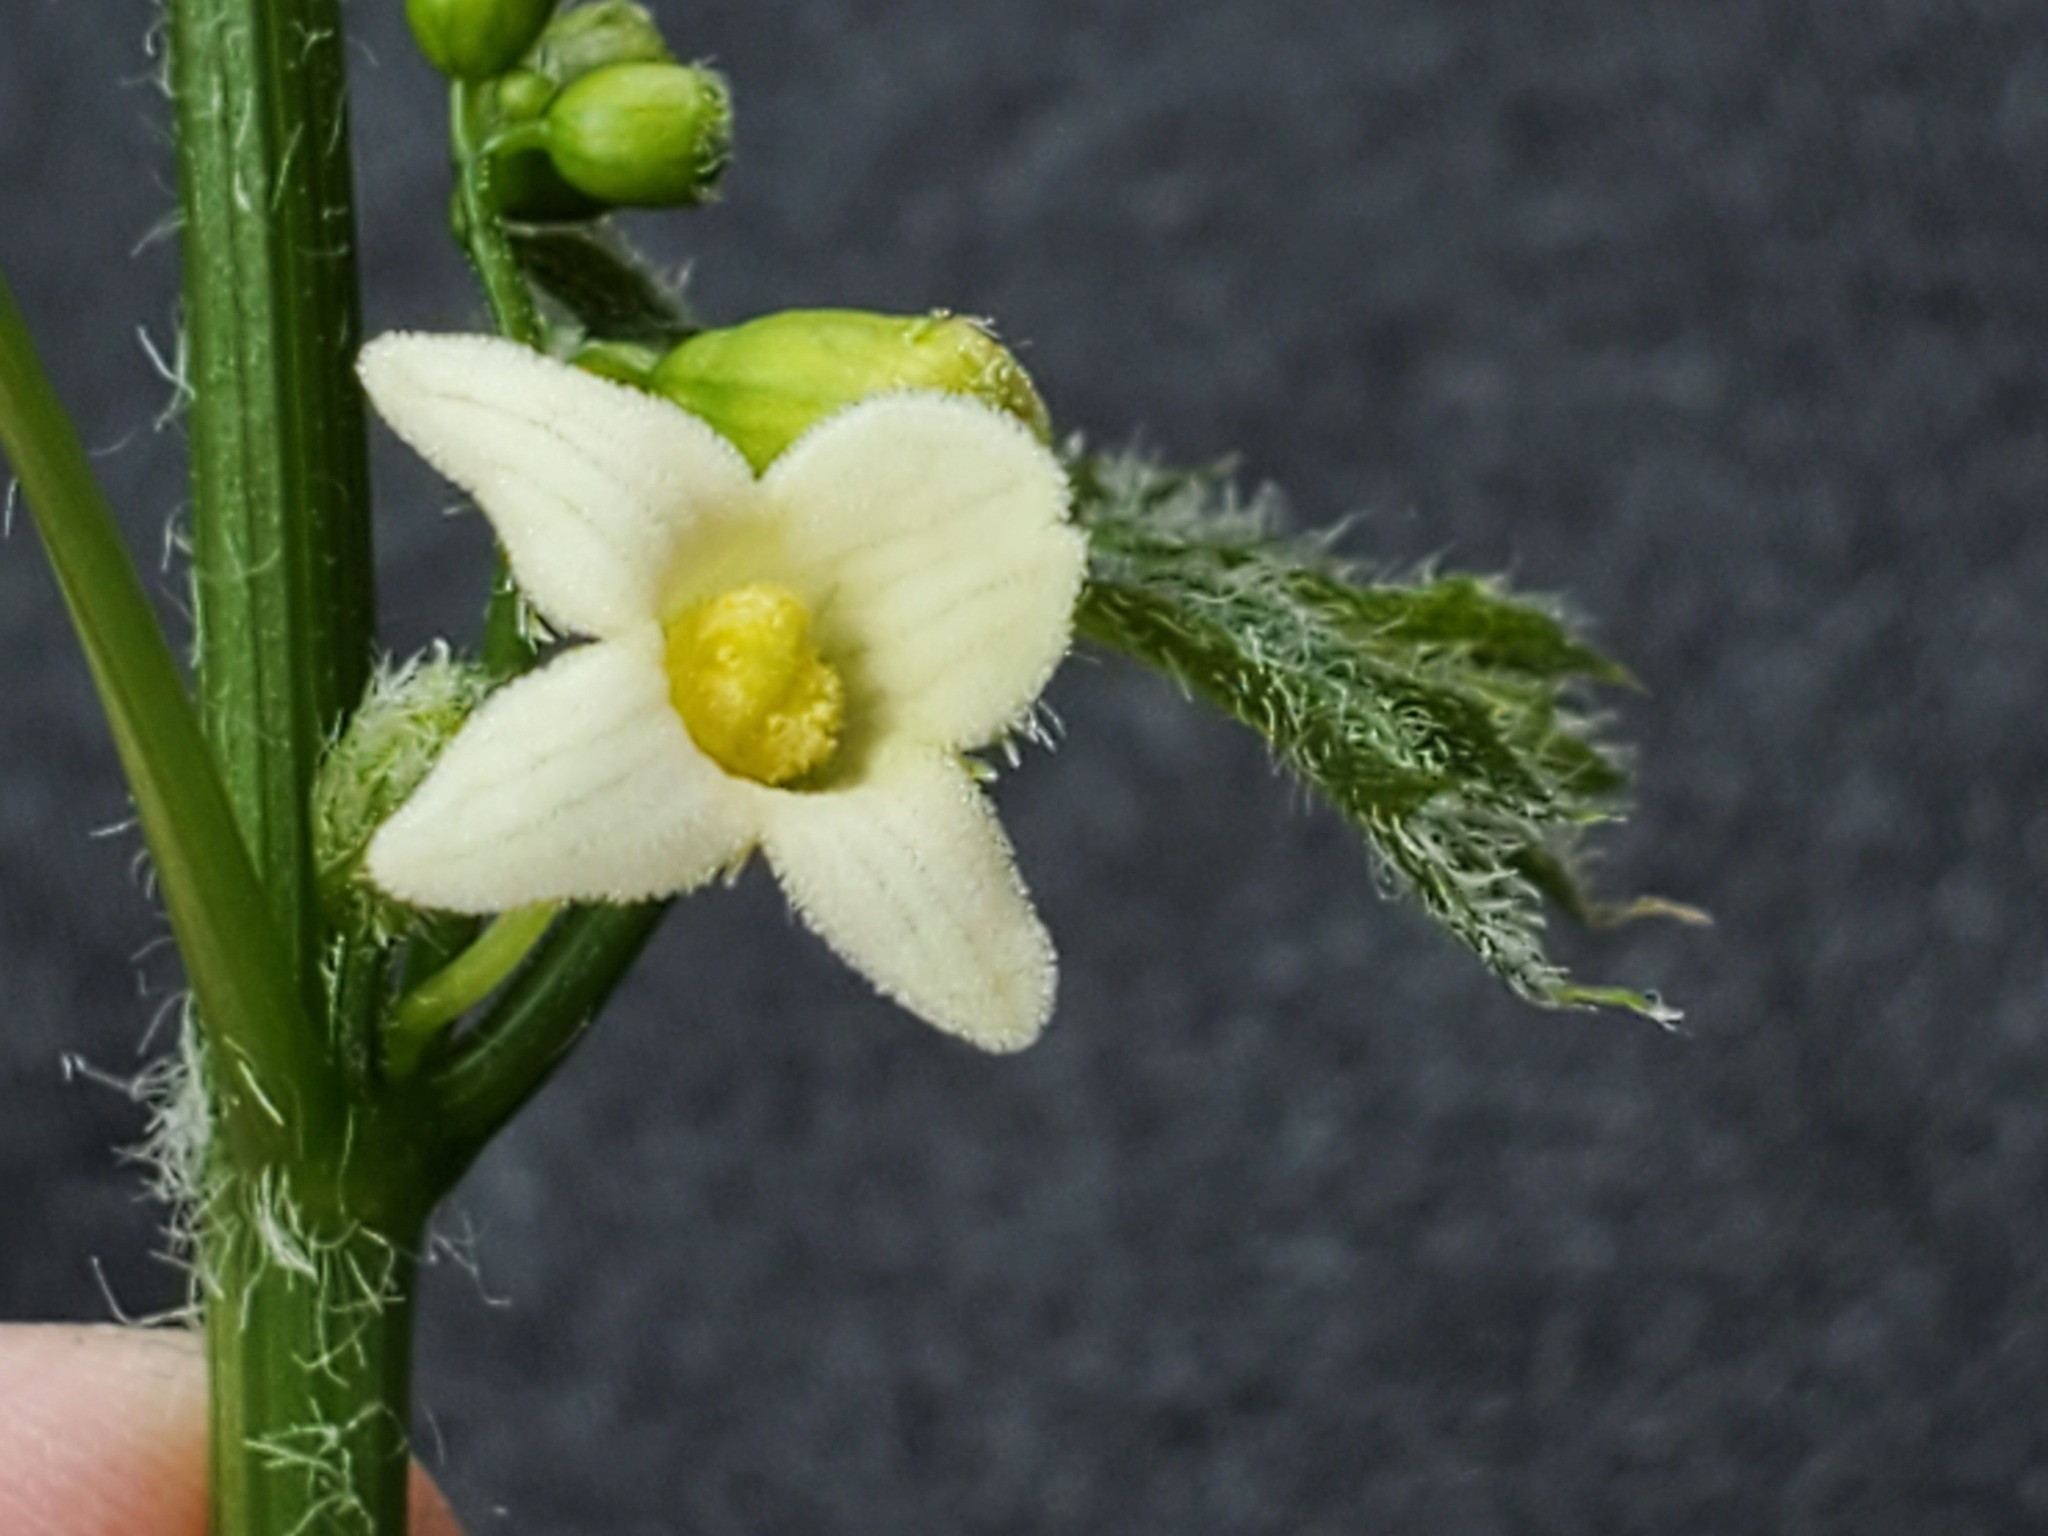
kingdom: Plantae
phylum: Tracheophyta
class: Magnoliopsida
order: Cucurbitales
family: Cucurbitaceae
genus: Marah
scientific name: Marah watsonii
